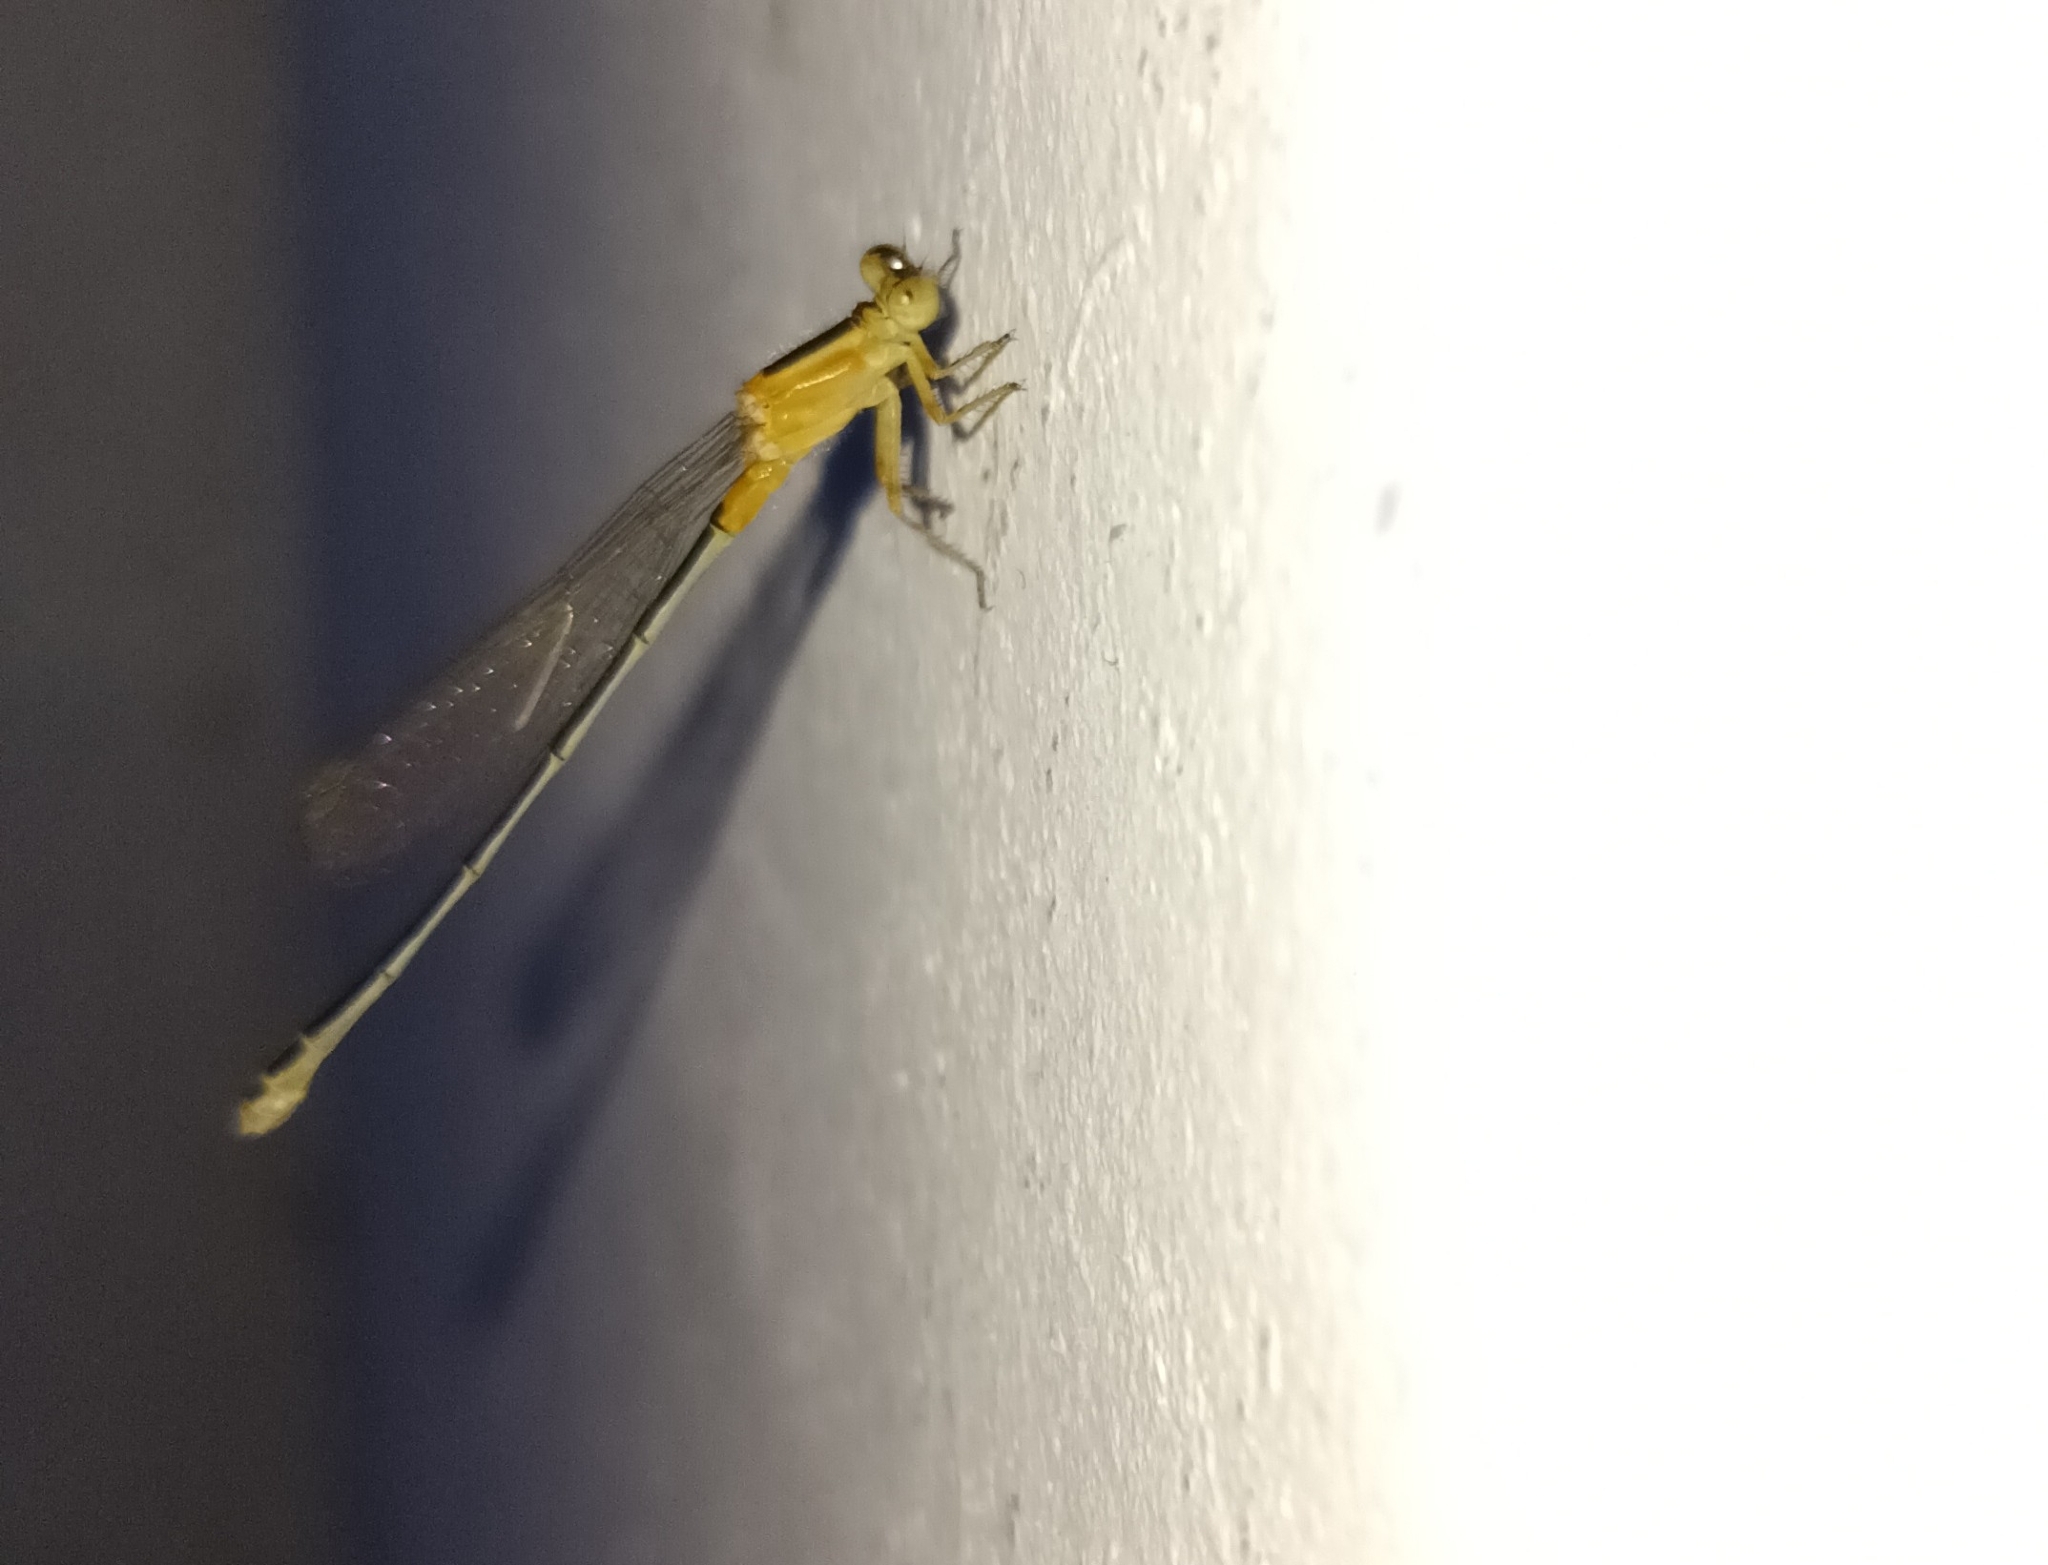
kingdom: Animalia
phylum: Arthropoda
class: Insecta
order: Odonata
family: Coenagrionidae
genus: Ischnura
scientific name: Ischnura senegalensis
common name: Tropical bluetail
